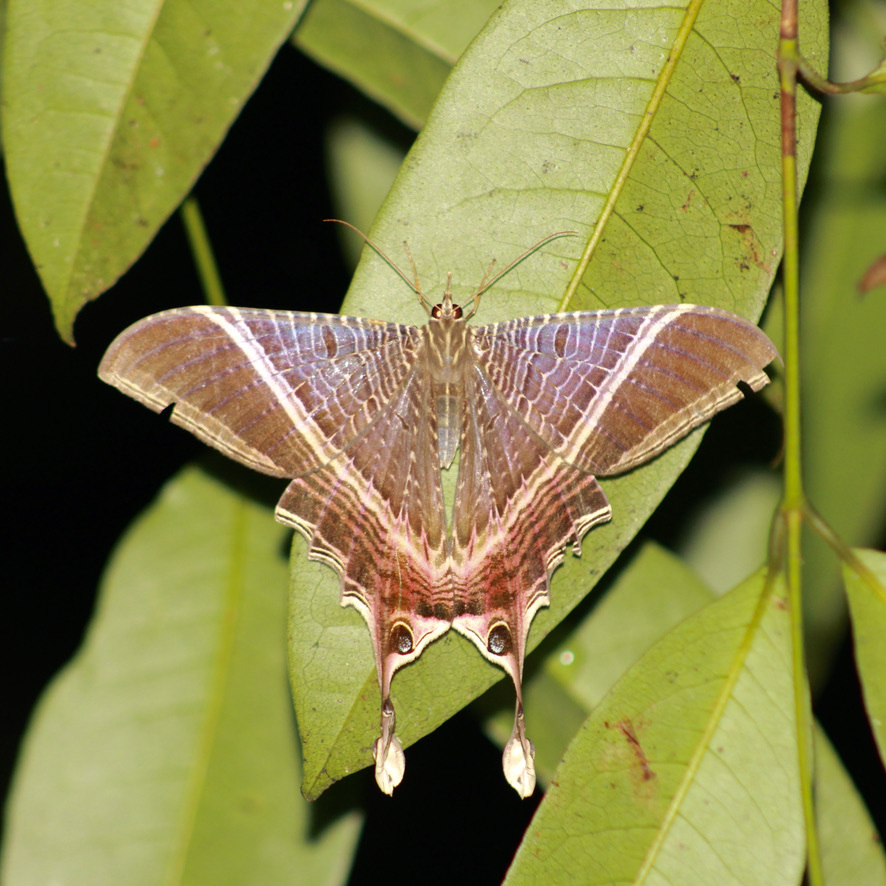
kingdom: Animalia
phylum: Arthropoda
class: Insecta
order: Lepidoptera
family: Sematuridae
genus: Nothus
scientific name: Nothus lunus
